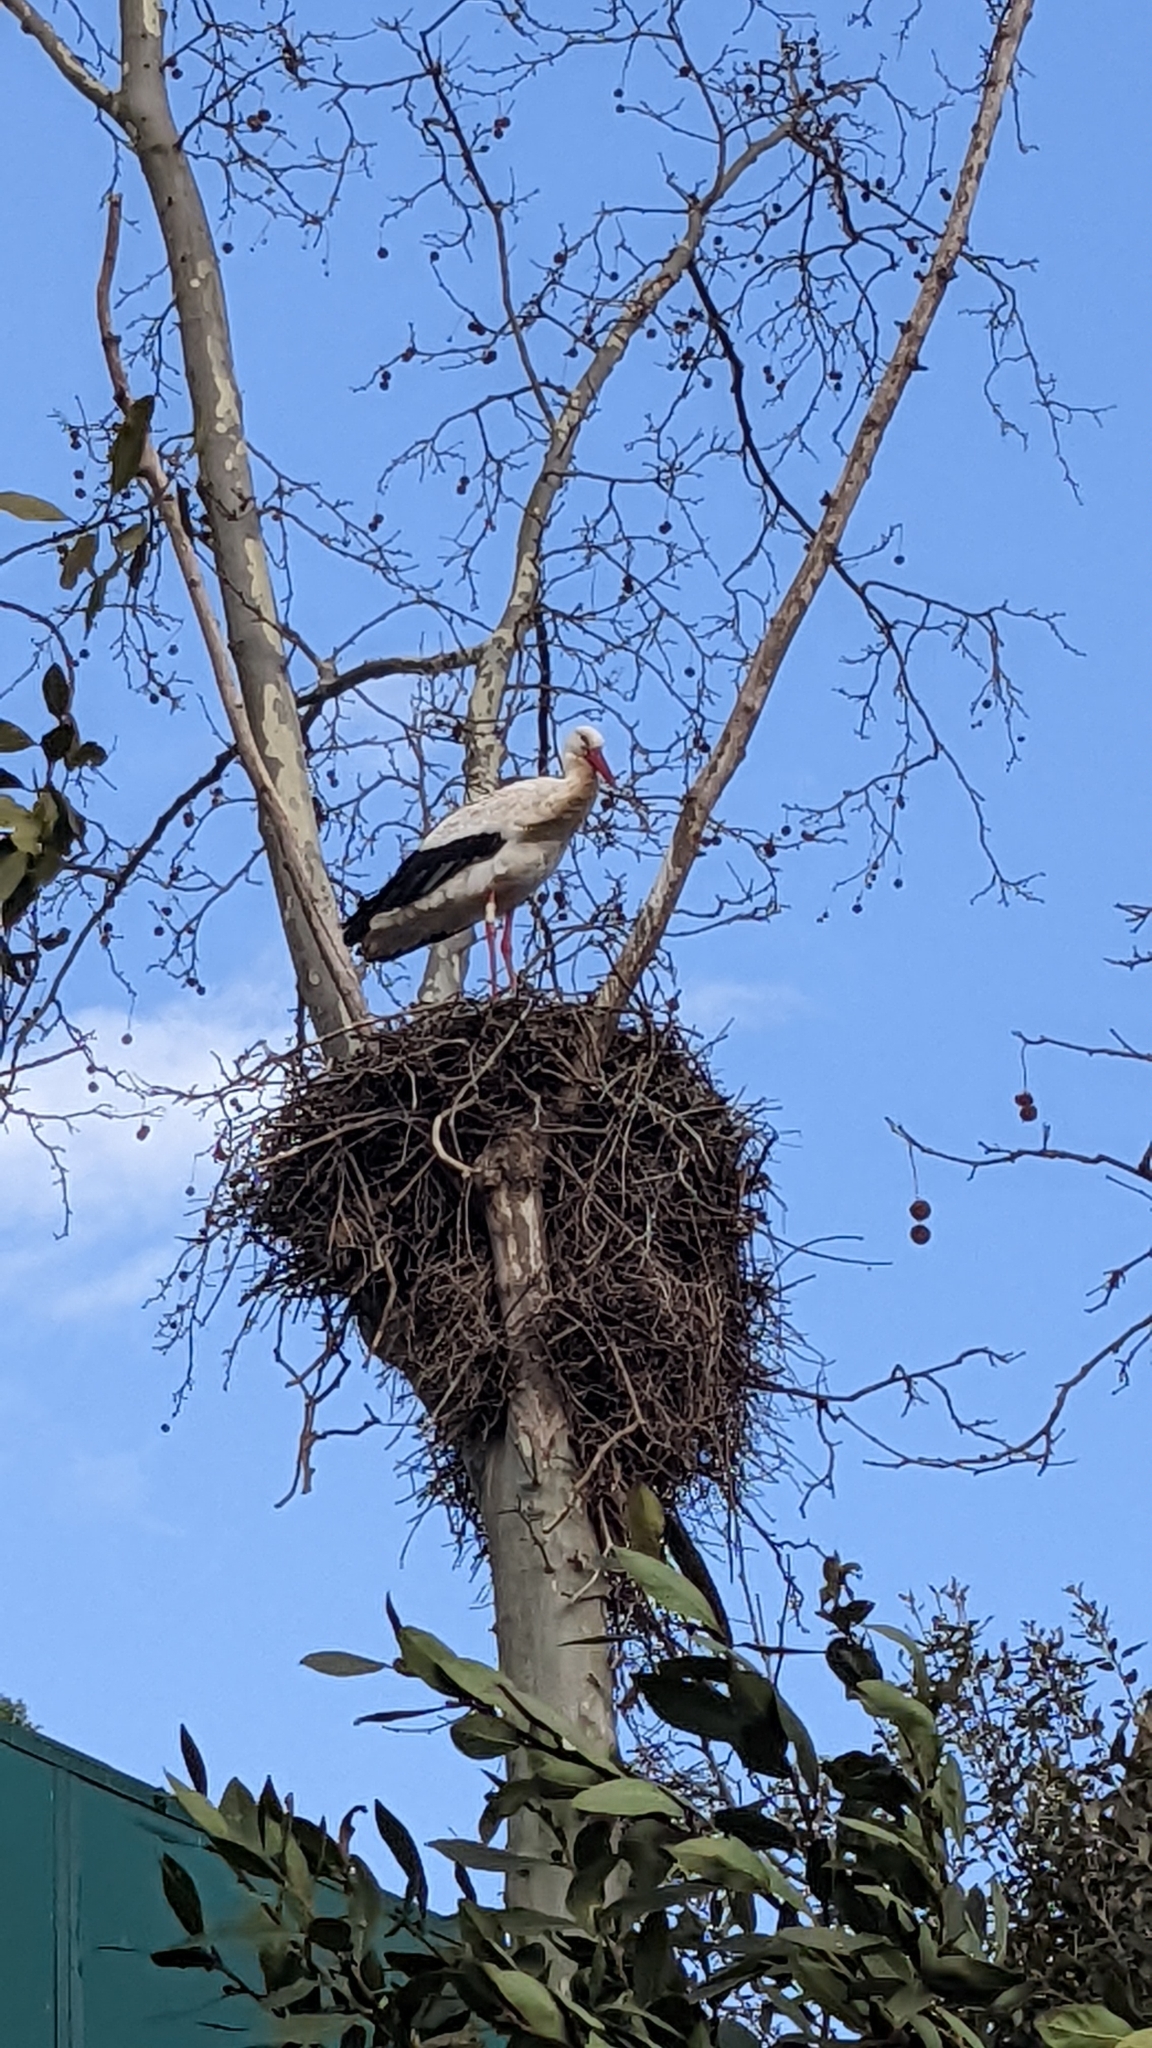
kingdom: Animalia
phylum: Chordata
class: Aves
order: Ciconiiformes
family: Ciconiidae
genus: Ciconia
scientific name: Ciconia ciconia
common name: White stork
